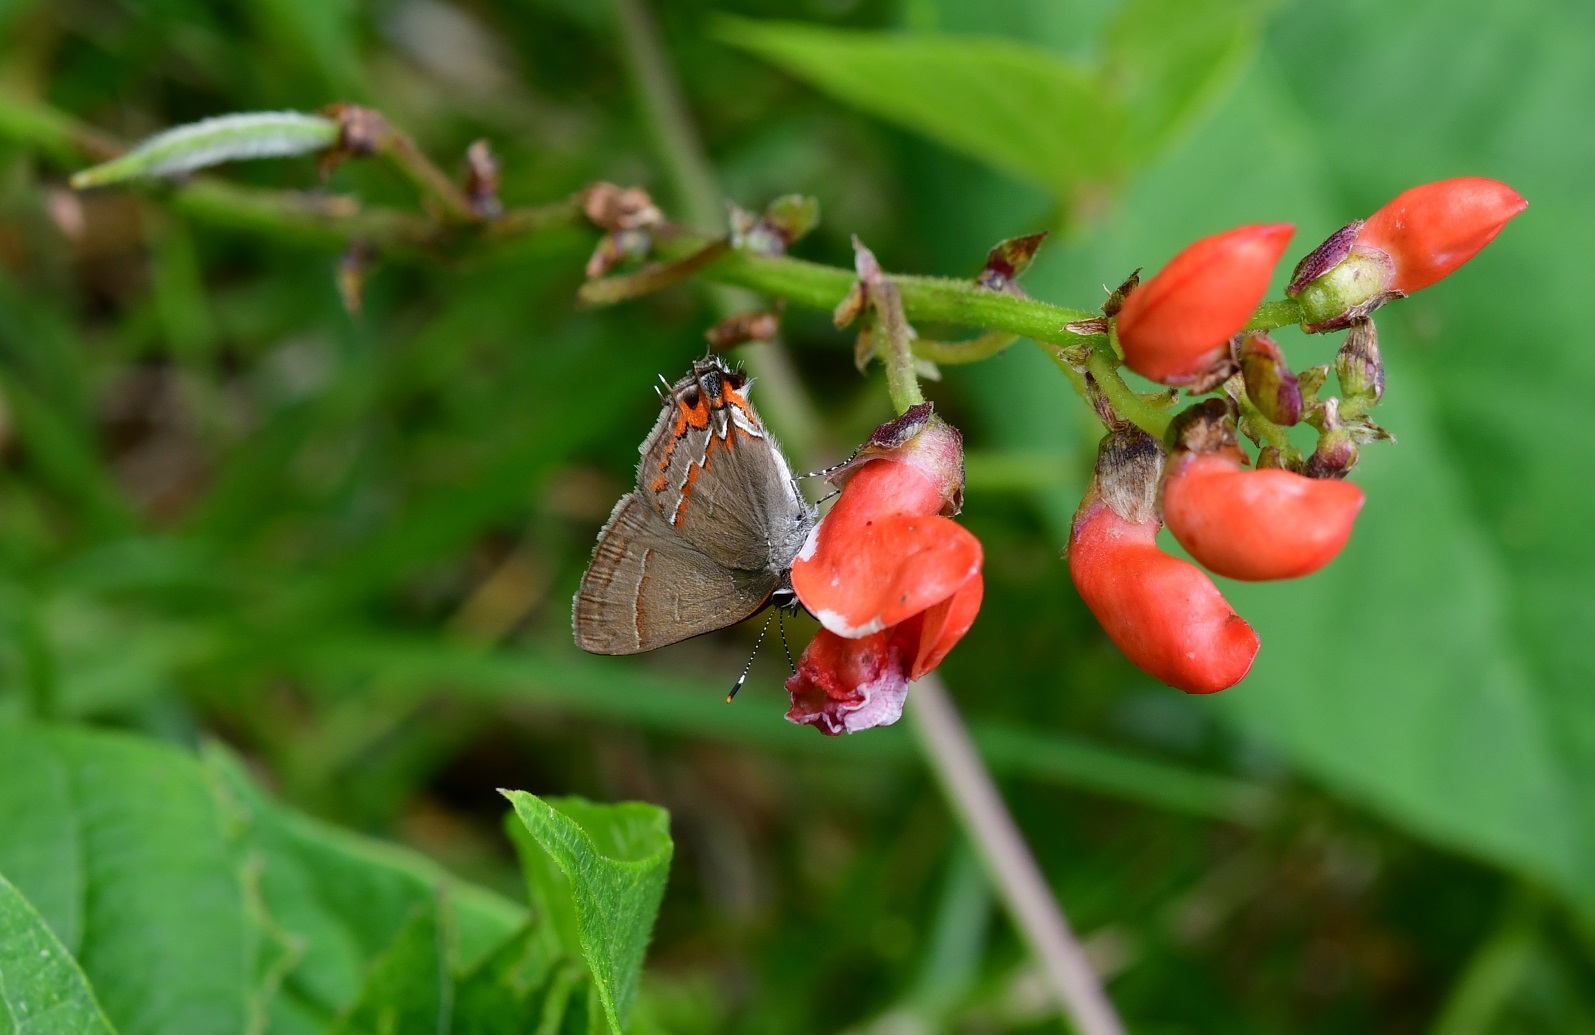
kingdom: Animalia
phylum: Arthropoda
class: Insecta
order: Lepidoptera
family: Lycaenidae
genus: Electrostrymon
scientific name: Electrostrymon
